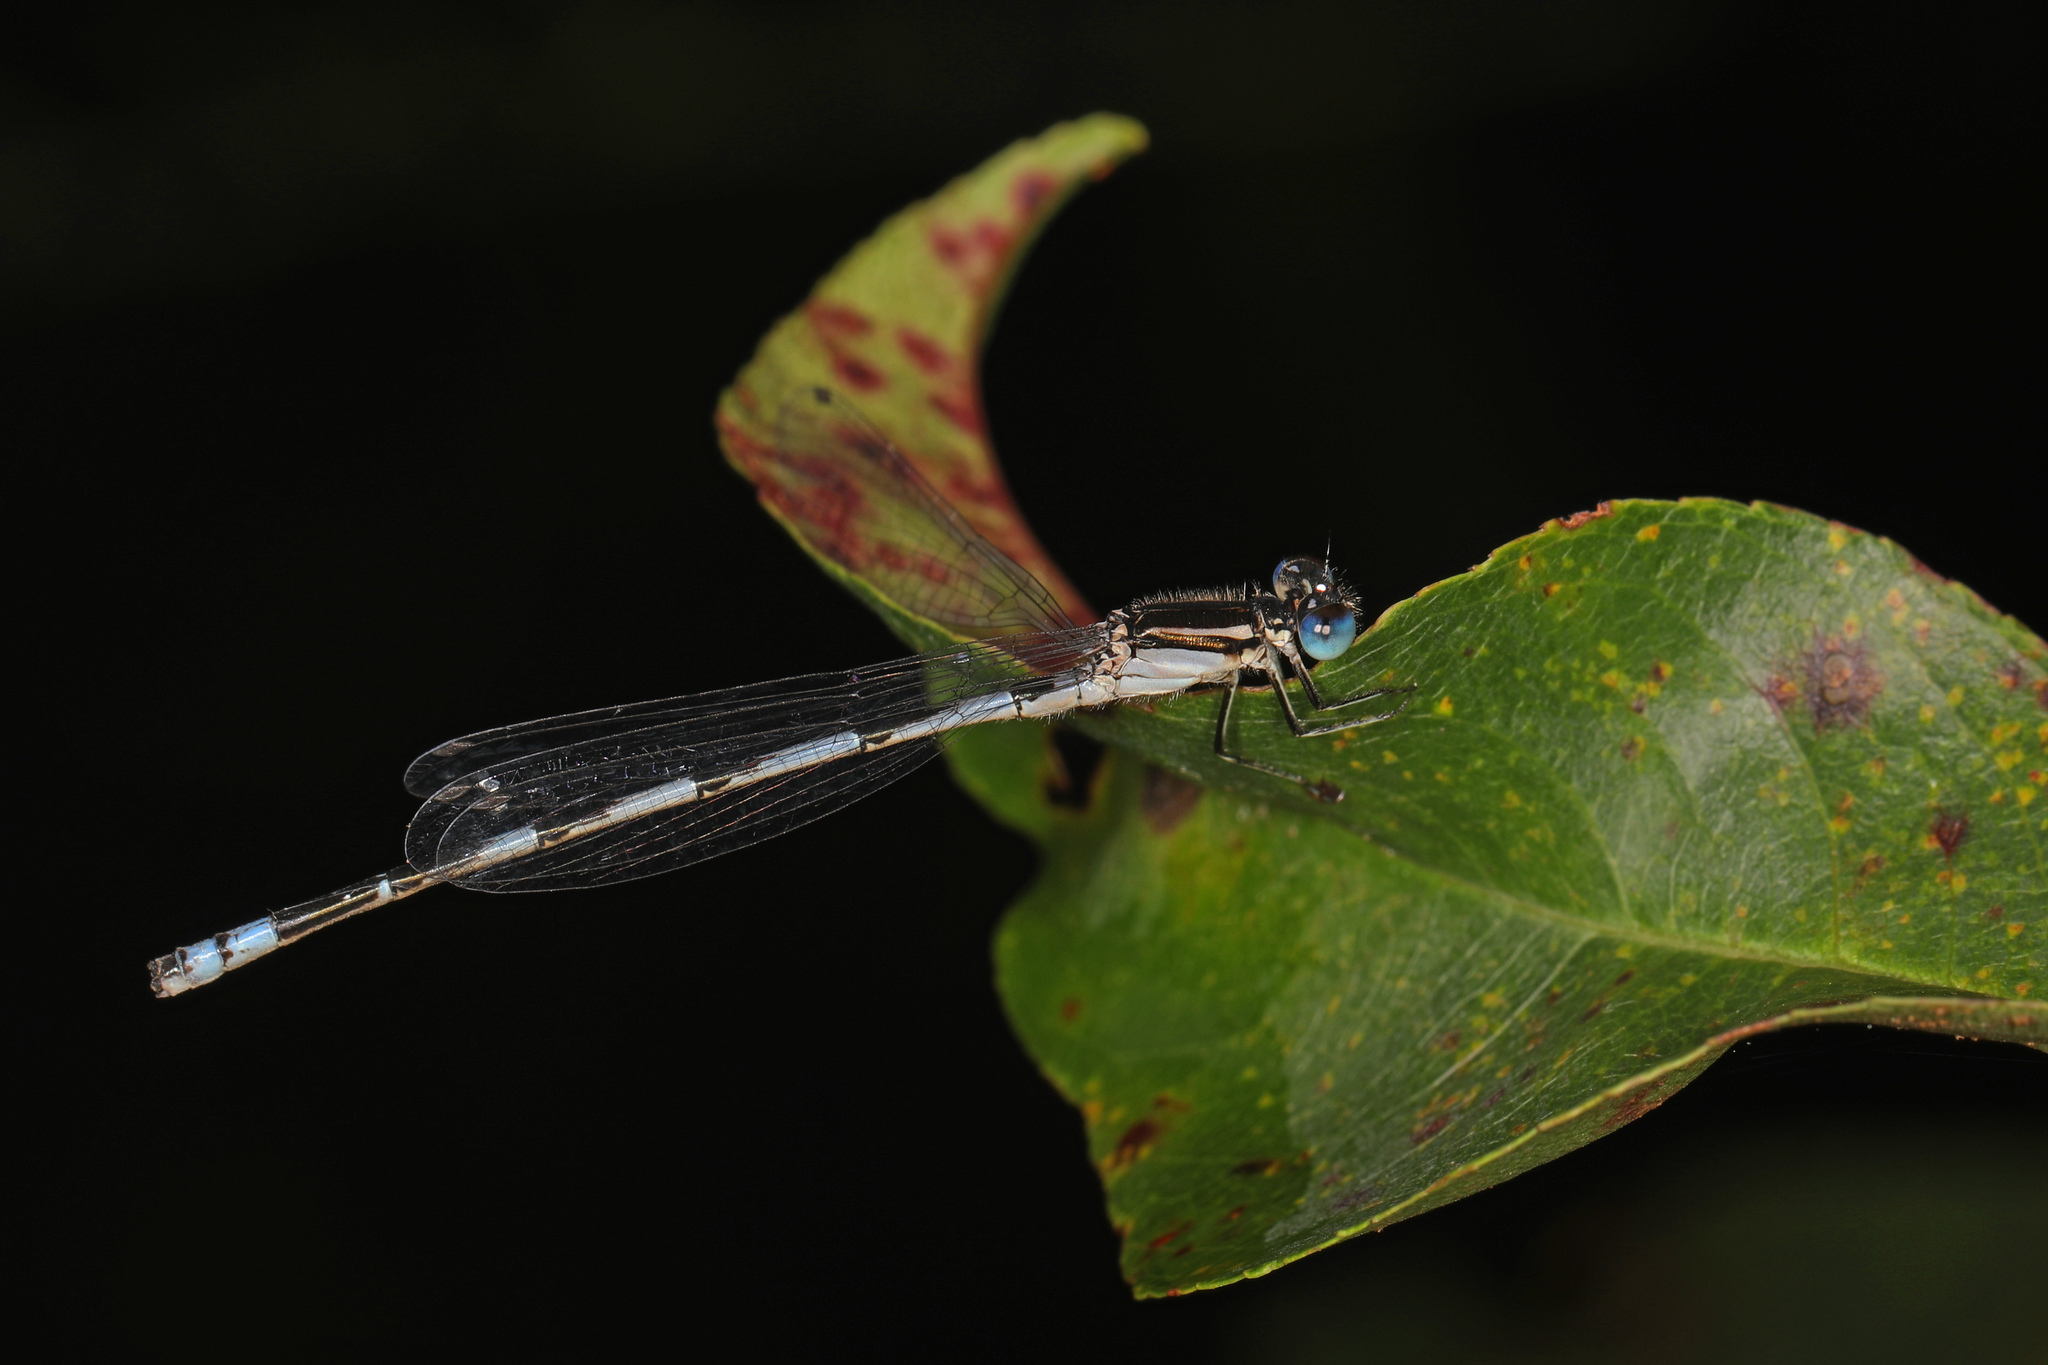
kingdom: Animalia
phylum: Arthropoda
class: Insecta
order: Odonata
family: Coenagrionidae
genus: Enallagma
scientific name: Enallagma durum
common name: Big bluet
